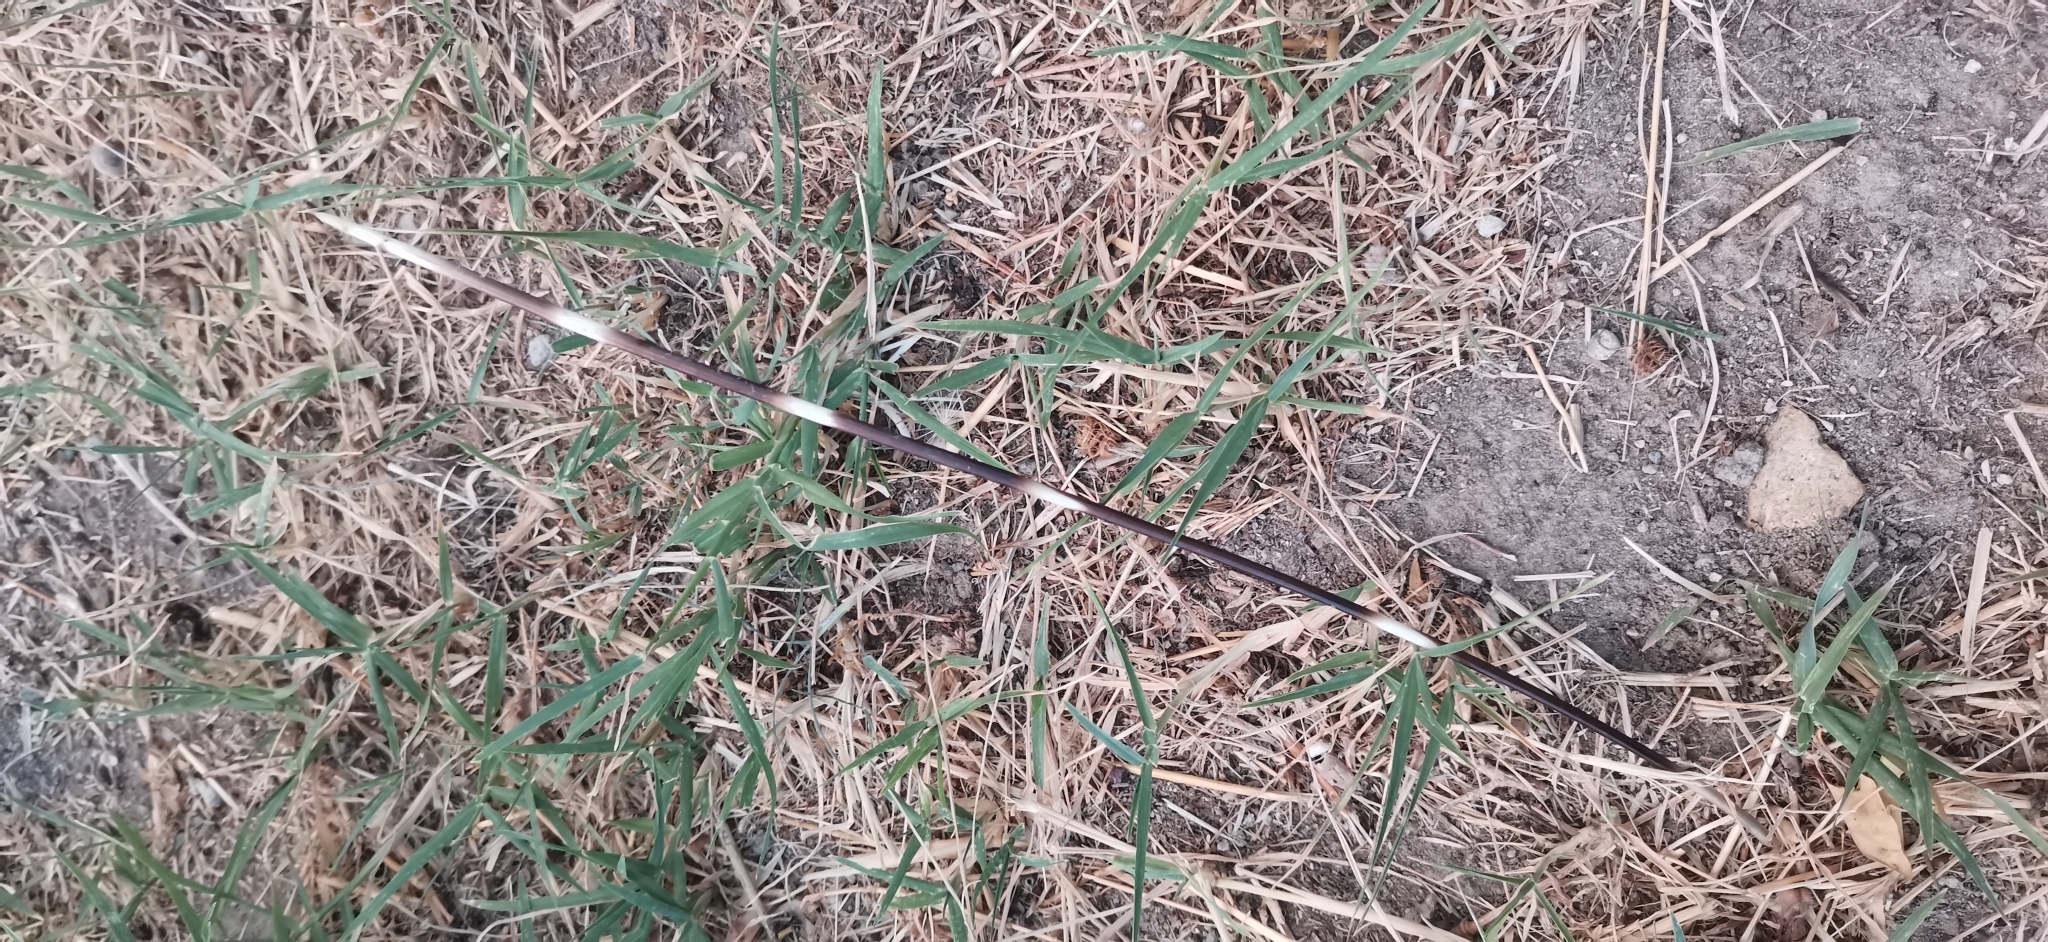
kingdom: Animalia
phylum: Chordata
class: Mammalia
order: Rodentia
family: Hystricidae
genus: Hystrix
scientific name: Hystrix cristata
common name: Crested porcupine
